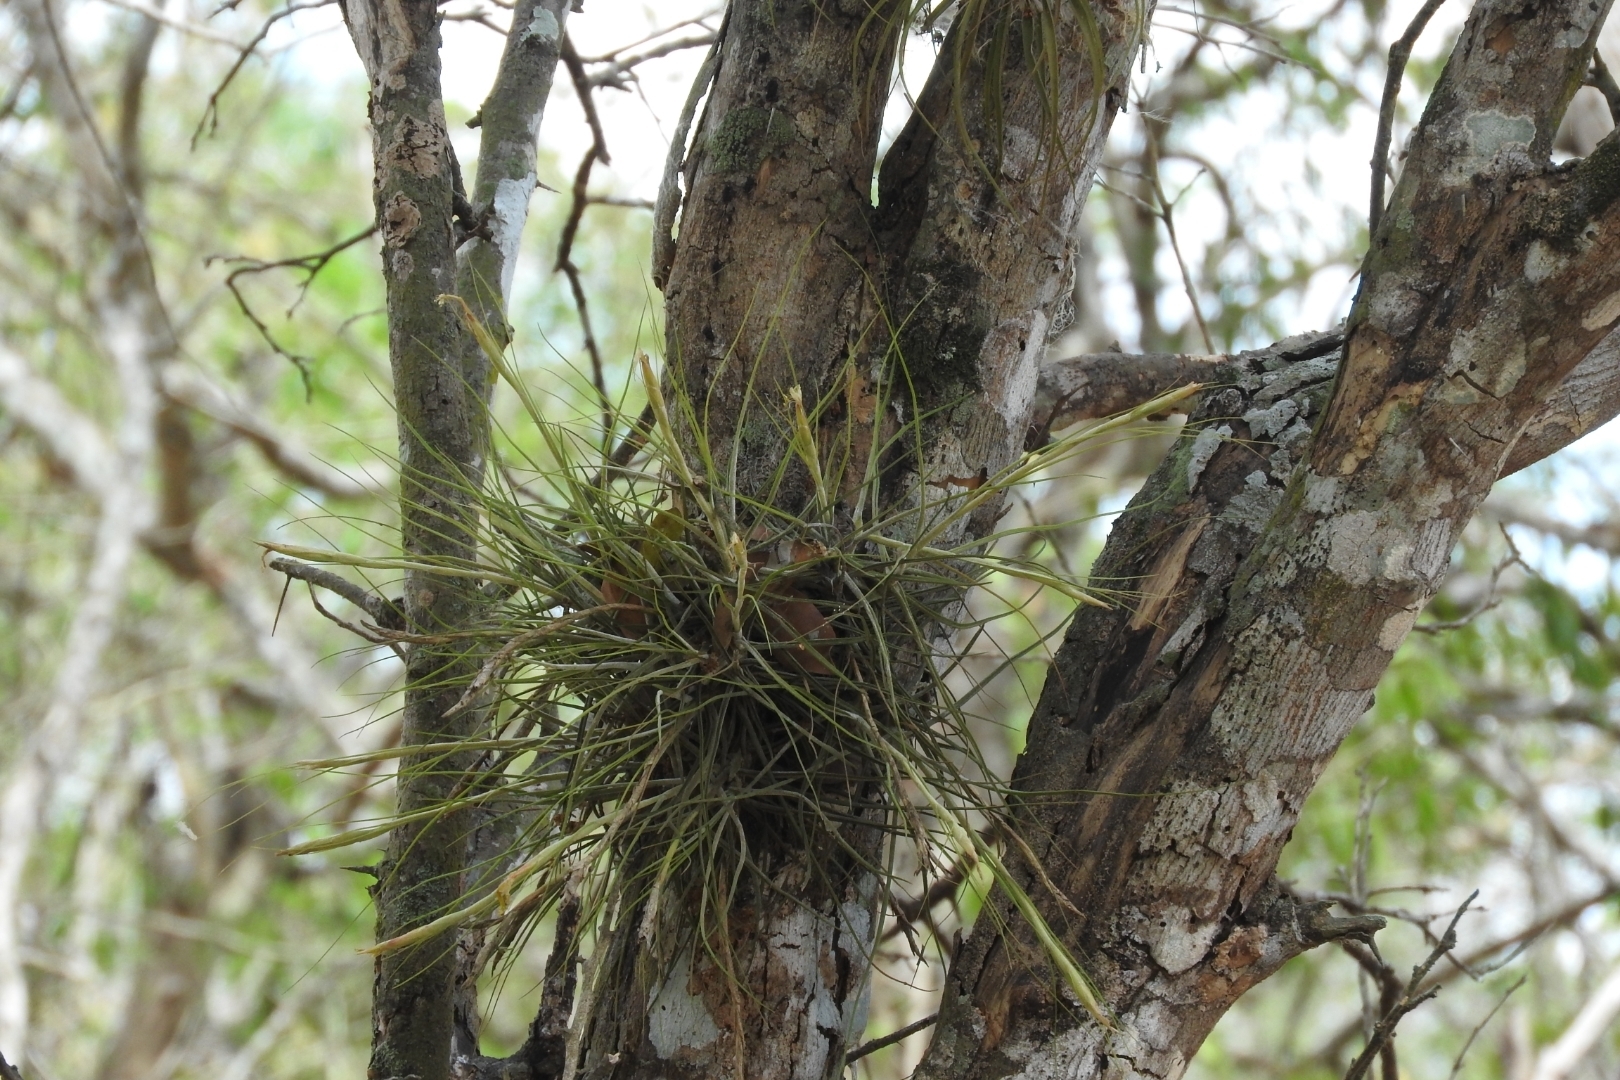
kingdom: Plantae
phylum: Tracheophyta
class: Liliopsida
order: Poales
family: Bromeliaceae
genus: Tillandsia
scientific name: Tillandsia schiedeana
